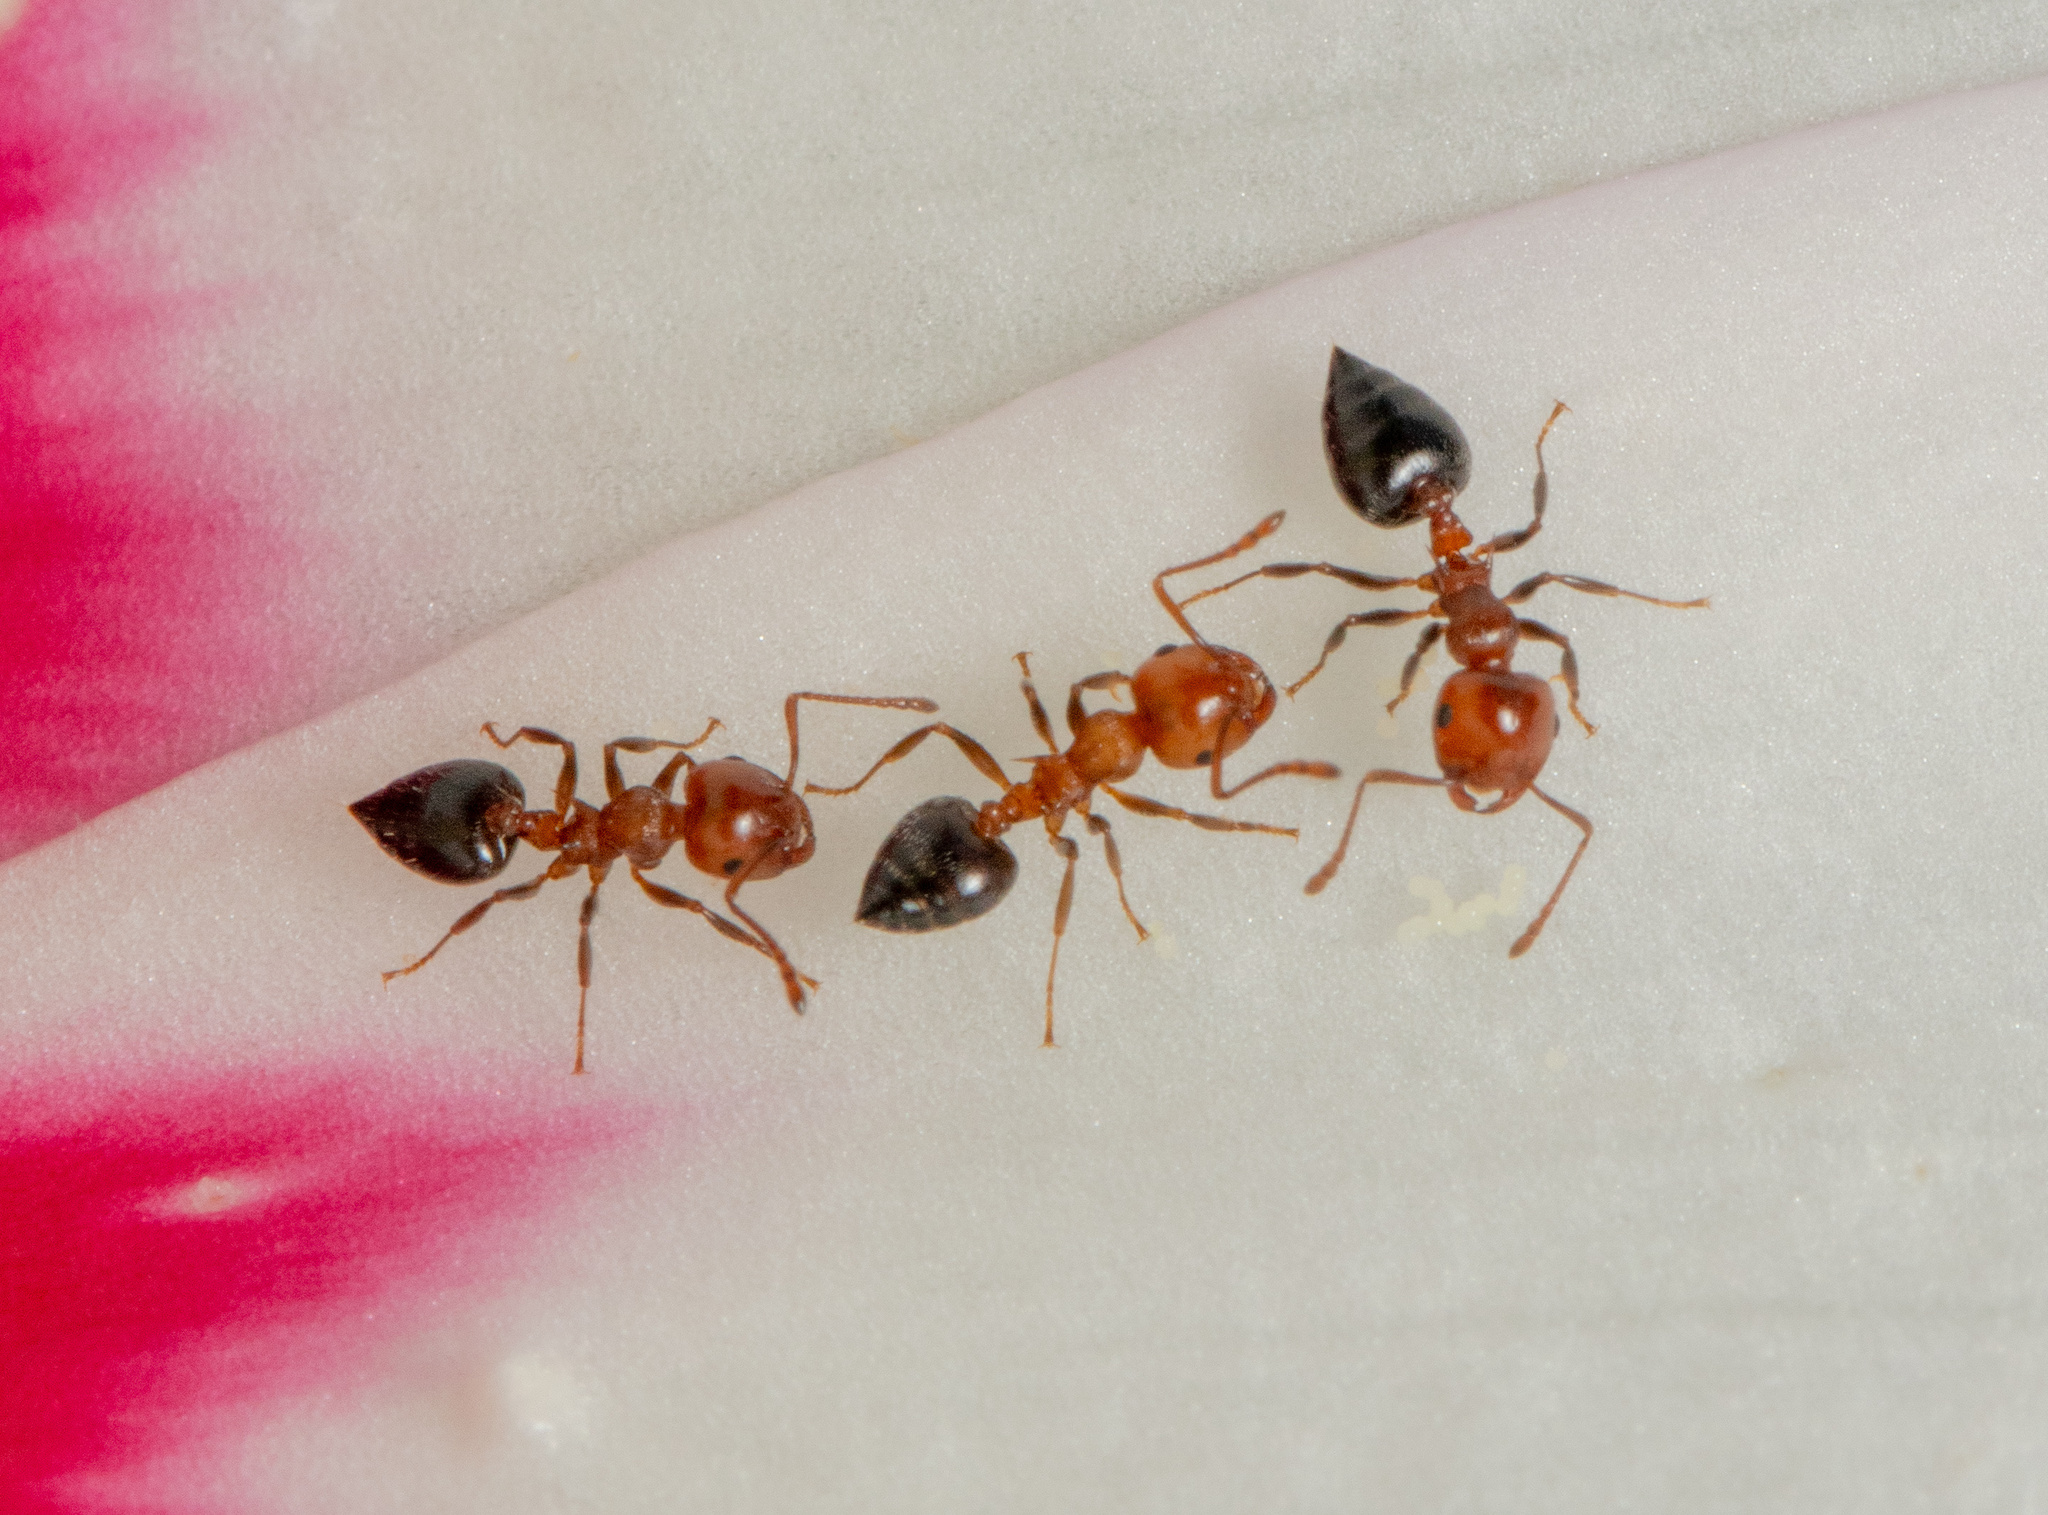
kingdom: Animalia
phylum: Arthropoda
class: Insecta
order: Hymenoptera
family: Formicidae
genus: Crematogaster
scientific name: Crematogaster laeviuscula
